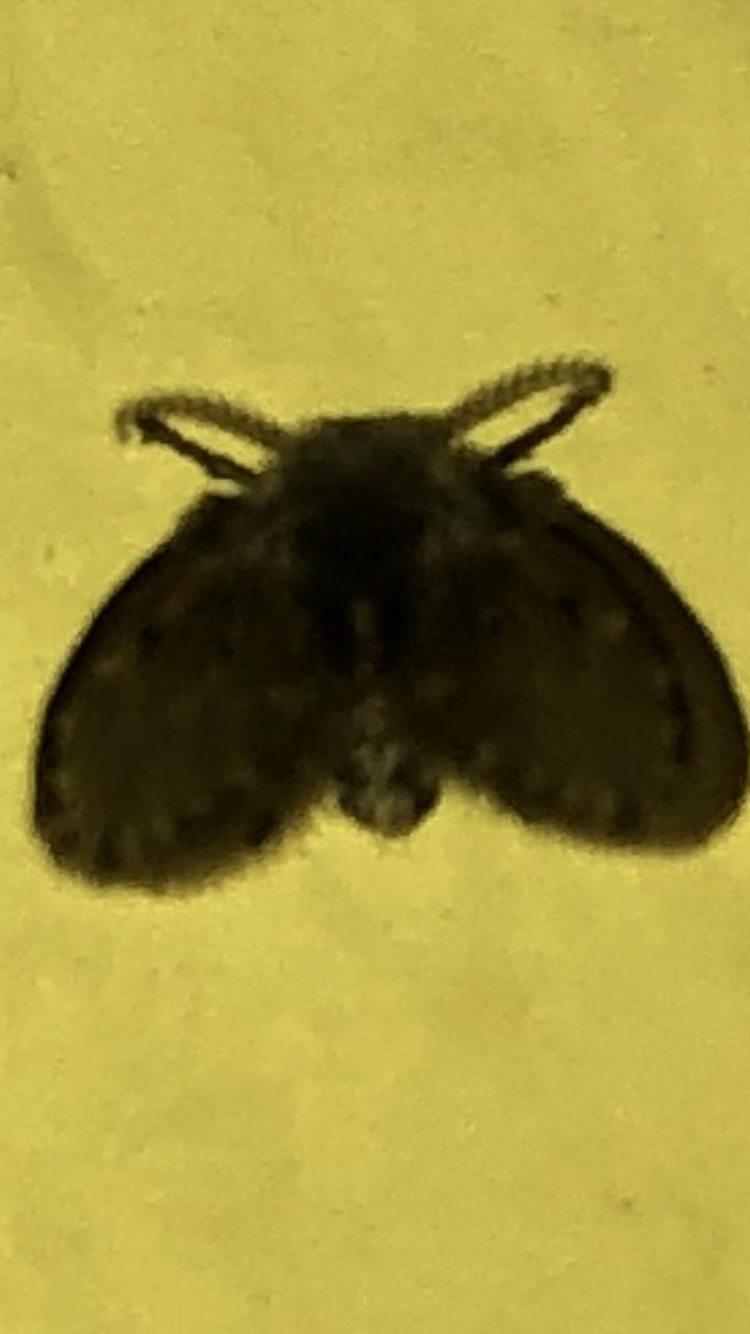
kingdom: Animalia
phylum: Arthropoda
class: Insecta
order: Diptera
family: Psychodidae
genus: Clogmia
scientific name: Clogmia albipunctatus
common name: White-spotted moth fly
